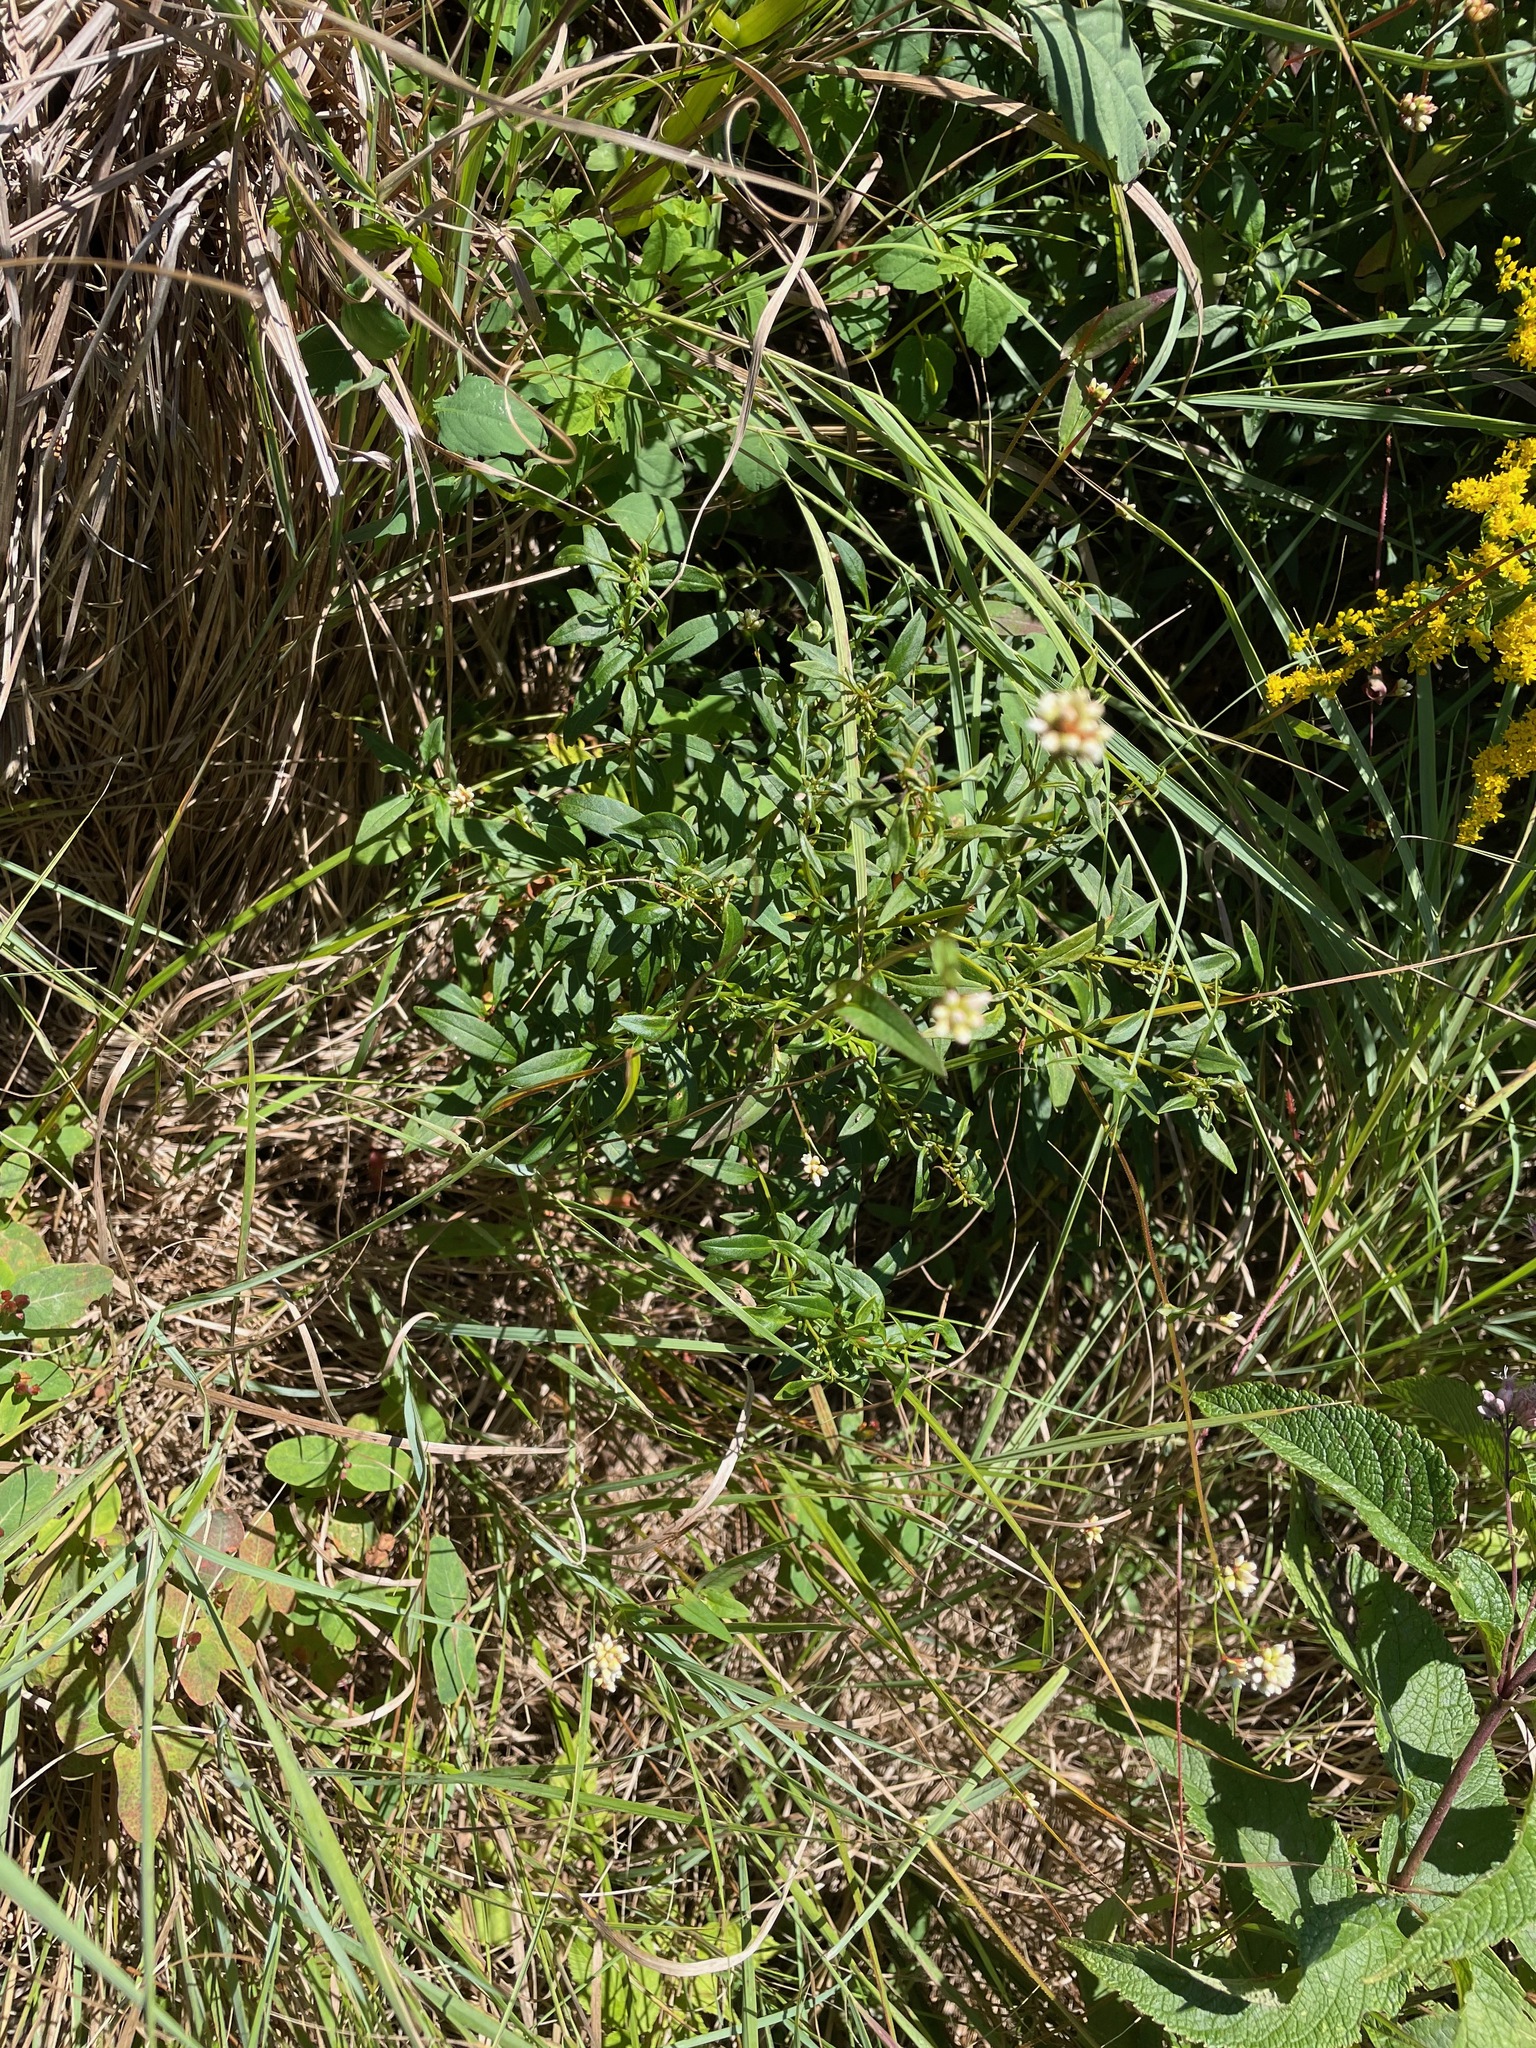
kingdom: Plantae
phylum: Tracheophyta
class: Magnoliopsida
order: Caryophyllales
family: Polygonaceae
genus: Persicaria
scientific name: Persicaria sagittata
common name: American tearthumb
